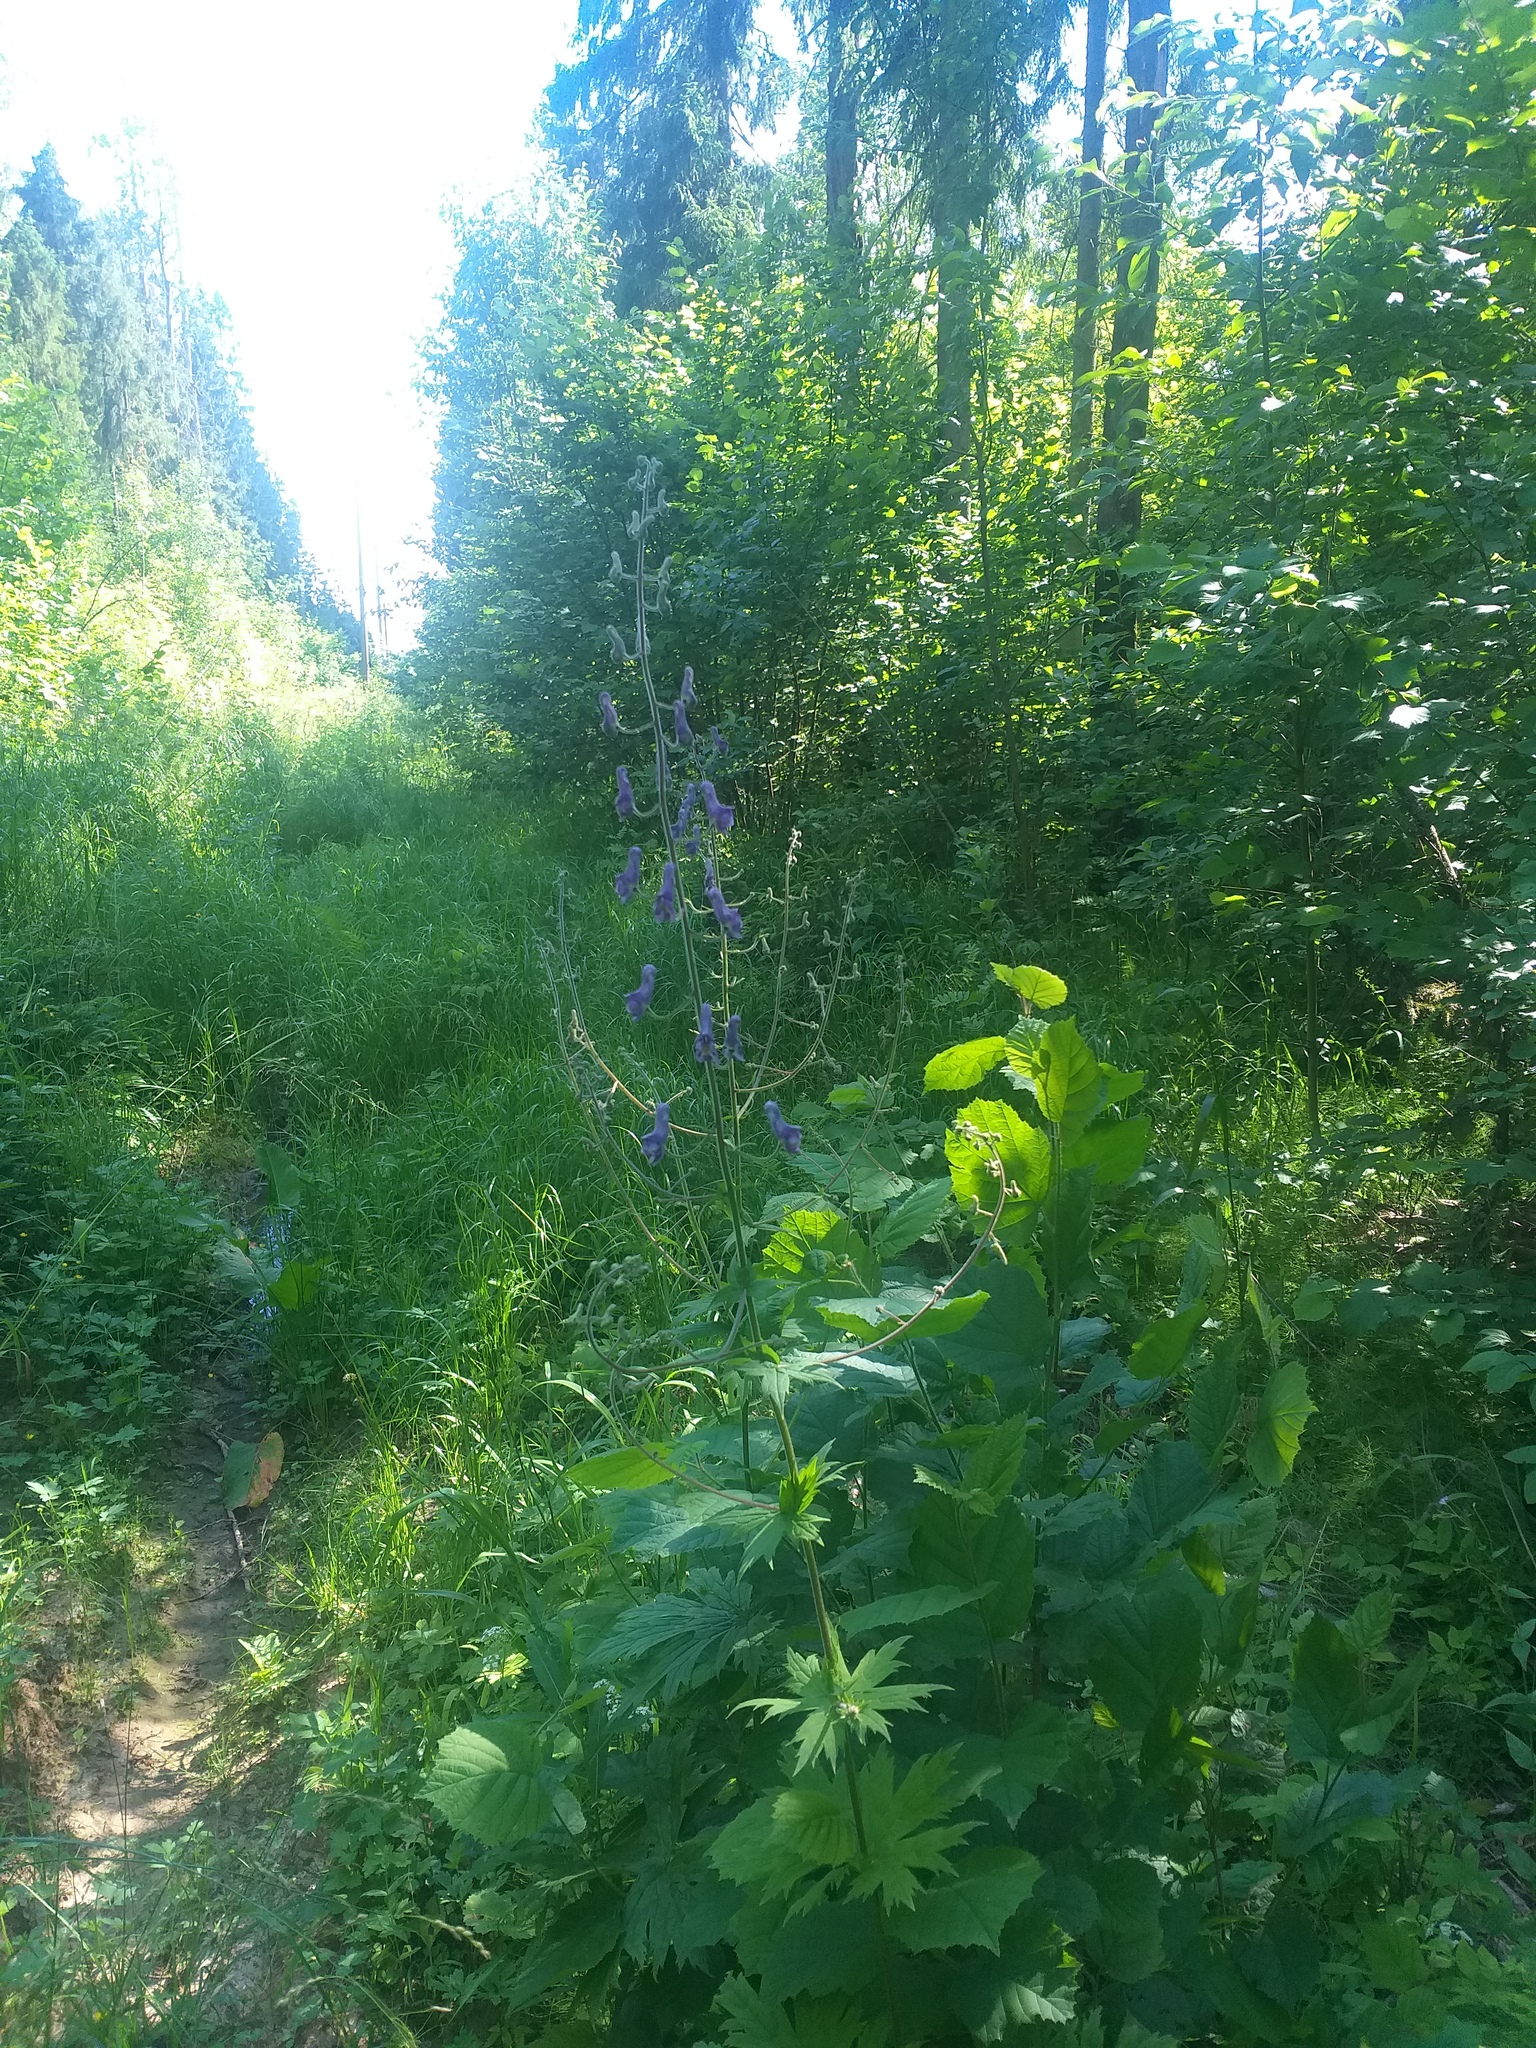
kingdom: Plantae
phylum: Tracheophyta
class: Magnoliopsida
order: Ranunculales
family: Ranunculaceae
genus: Aconitum
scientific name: Aconitum septentrionale
